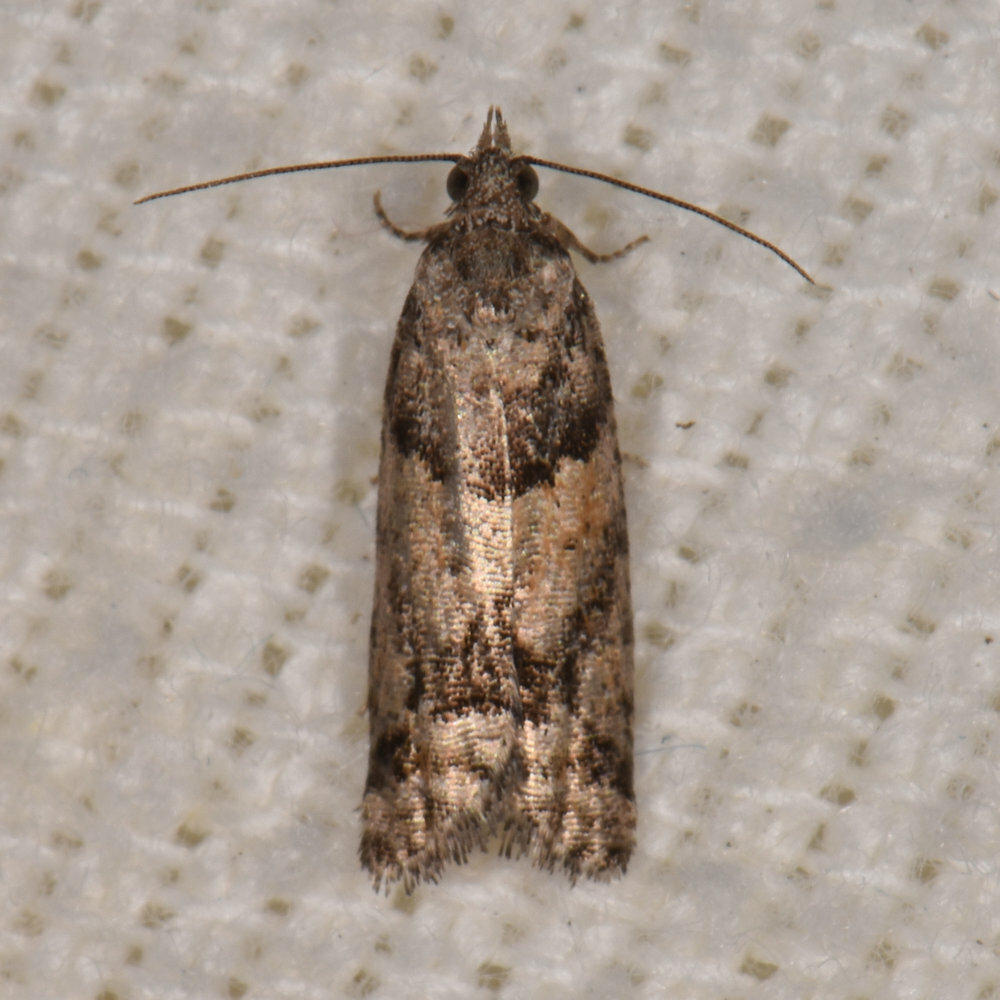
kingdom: Animalia
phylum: Arthropoda
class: Insecta
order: Lepidoptera
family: Tortricidae
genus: Epinotia
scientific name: Epinotia radicana
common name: Red-striped needleworm moth
